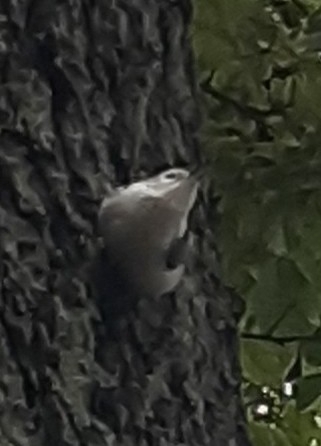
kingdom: Animalia
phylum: Chordata
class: Aves
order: Passeriformes
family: Sittidae
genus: Sitta
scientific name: Sitta carolinensis
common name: White-breasted nuthatch
